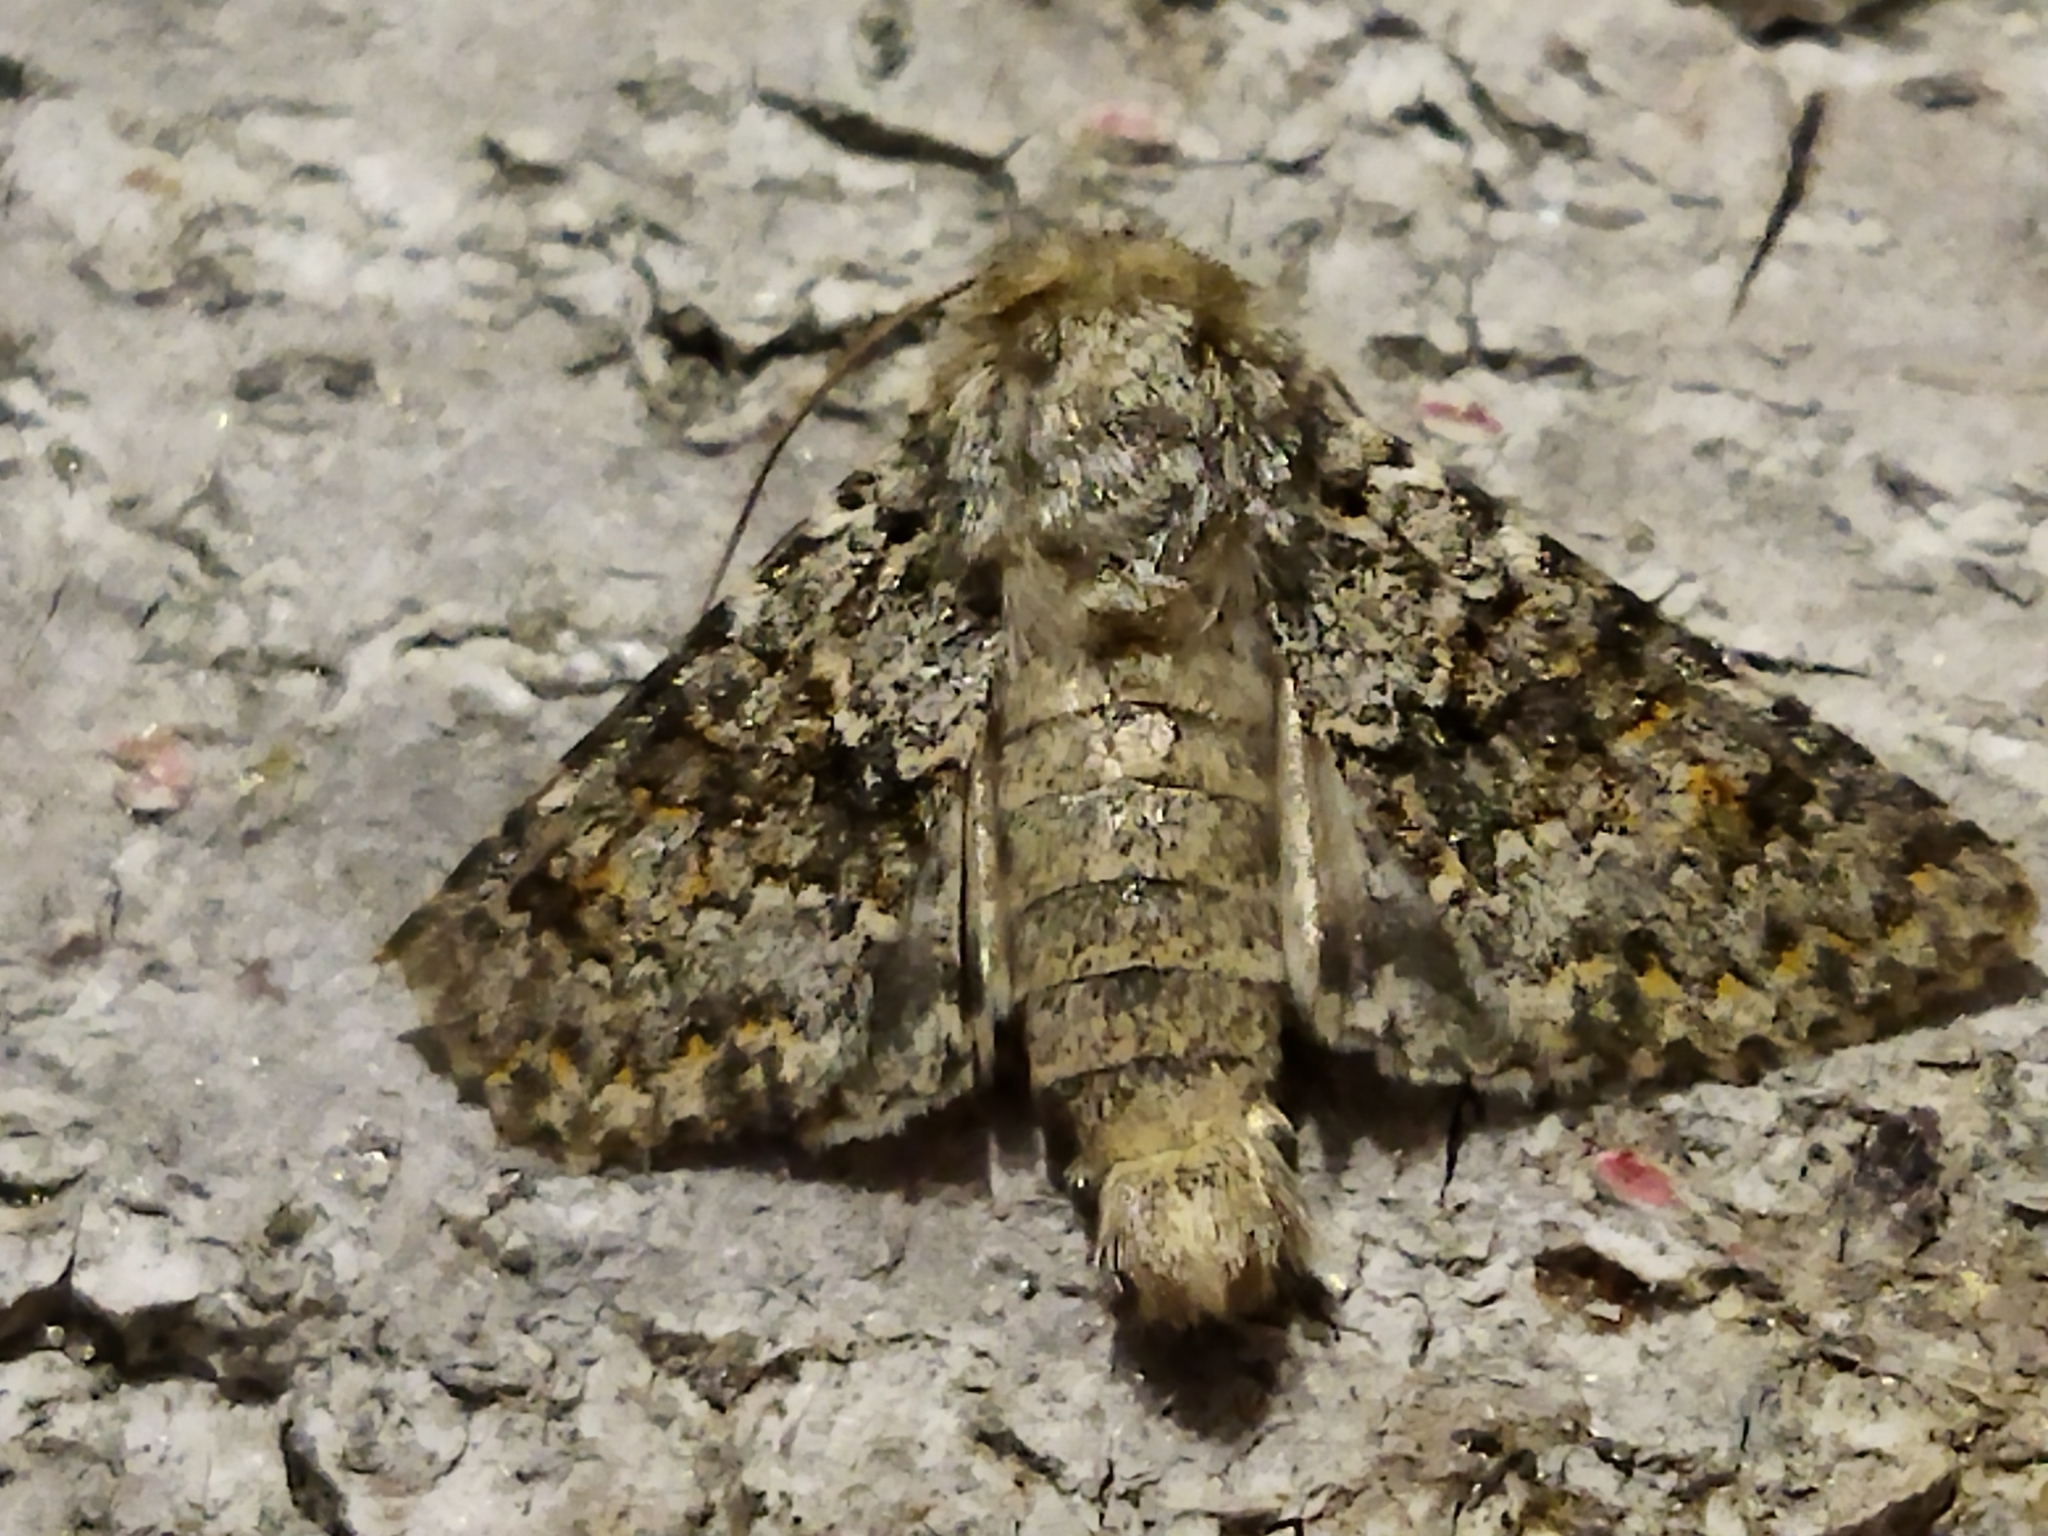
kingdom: Animalia
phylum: Arthropoda
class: Insecta
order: Lepidoptera
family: Noctuidae
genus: Hecatera
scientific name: Hecatera dysodea
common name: Small ranunculus
